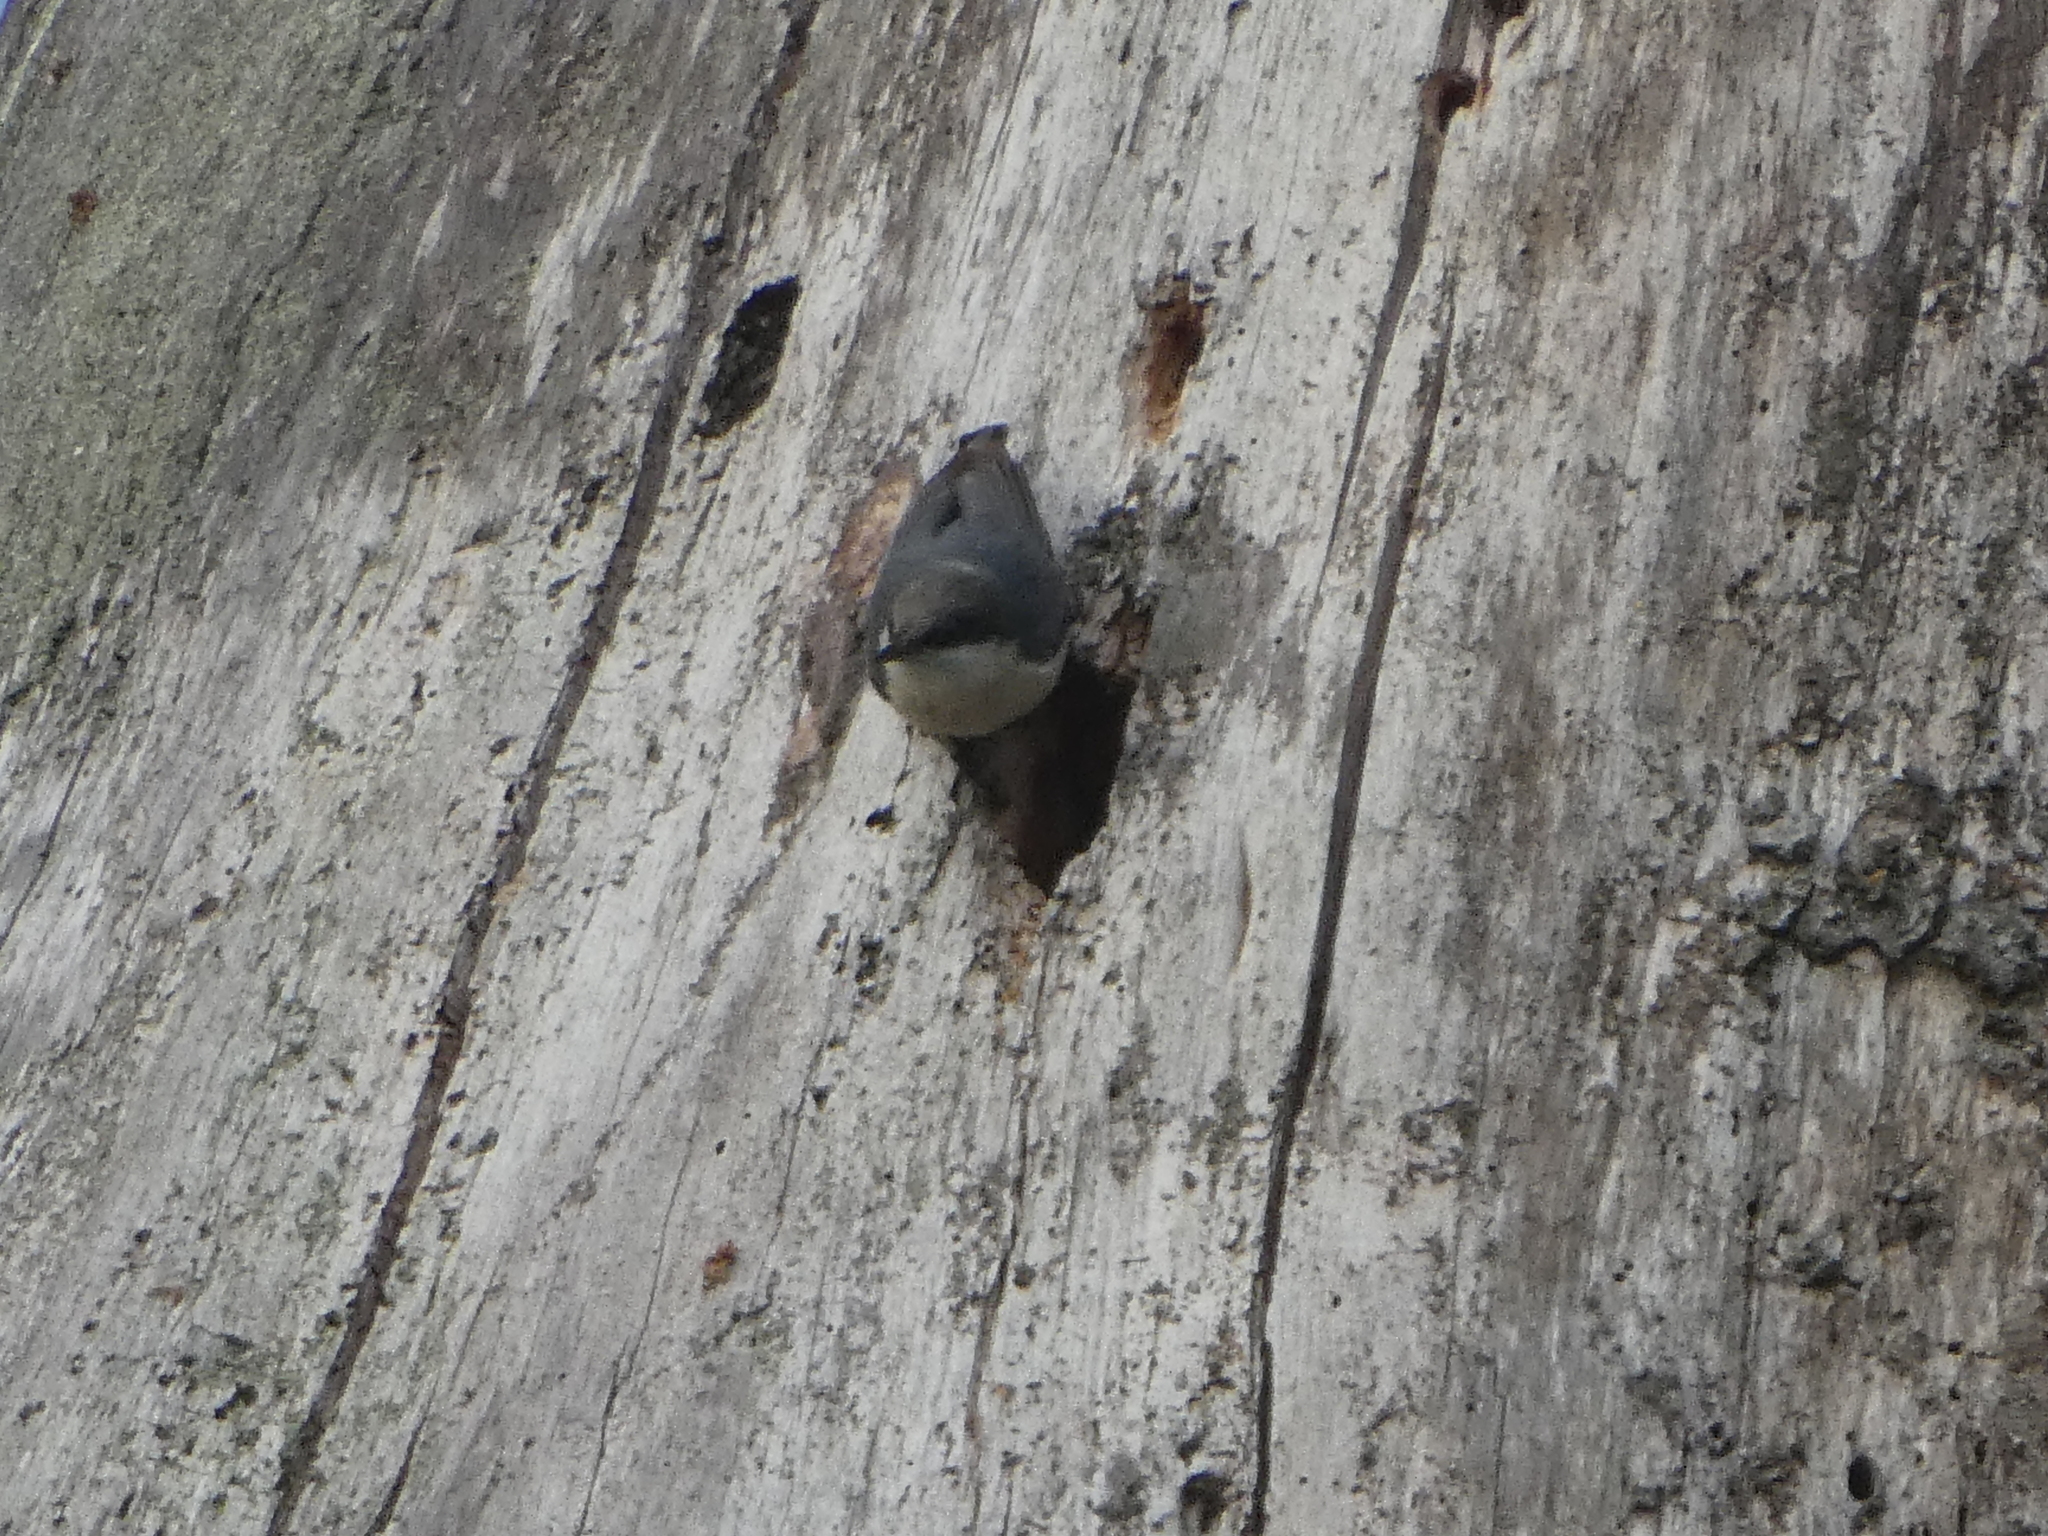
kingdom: Animalia
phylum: Chordata
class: Aves
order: Passeriformes
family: Sittidae
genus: Sitta
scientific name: Sitta pygmaea
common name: Pygmy nuthatch
